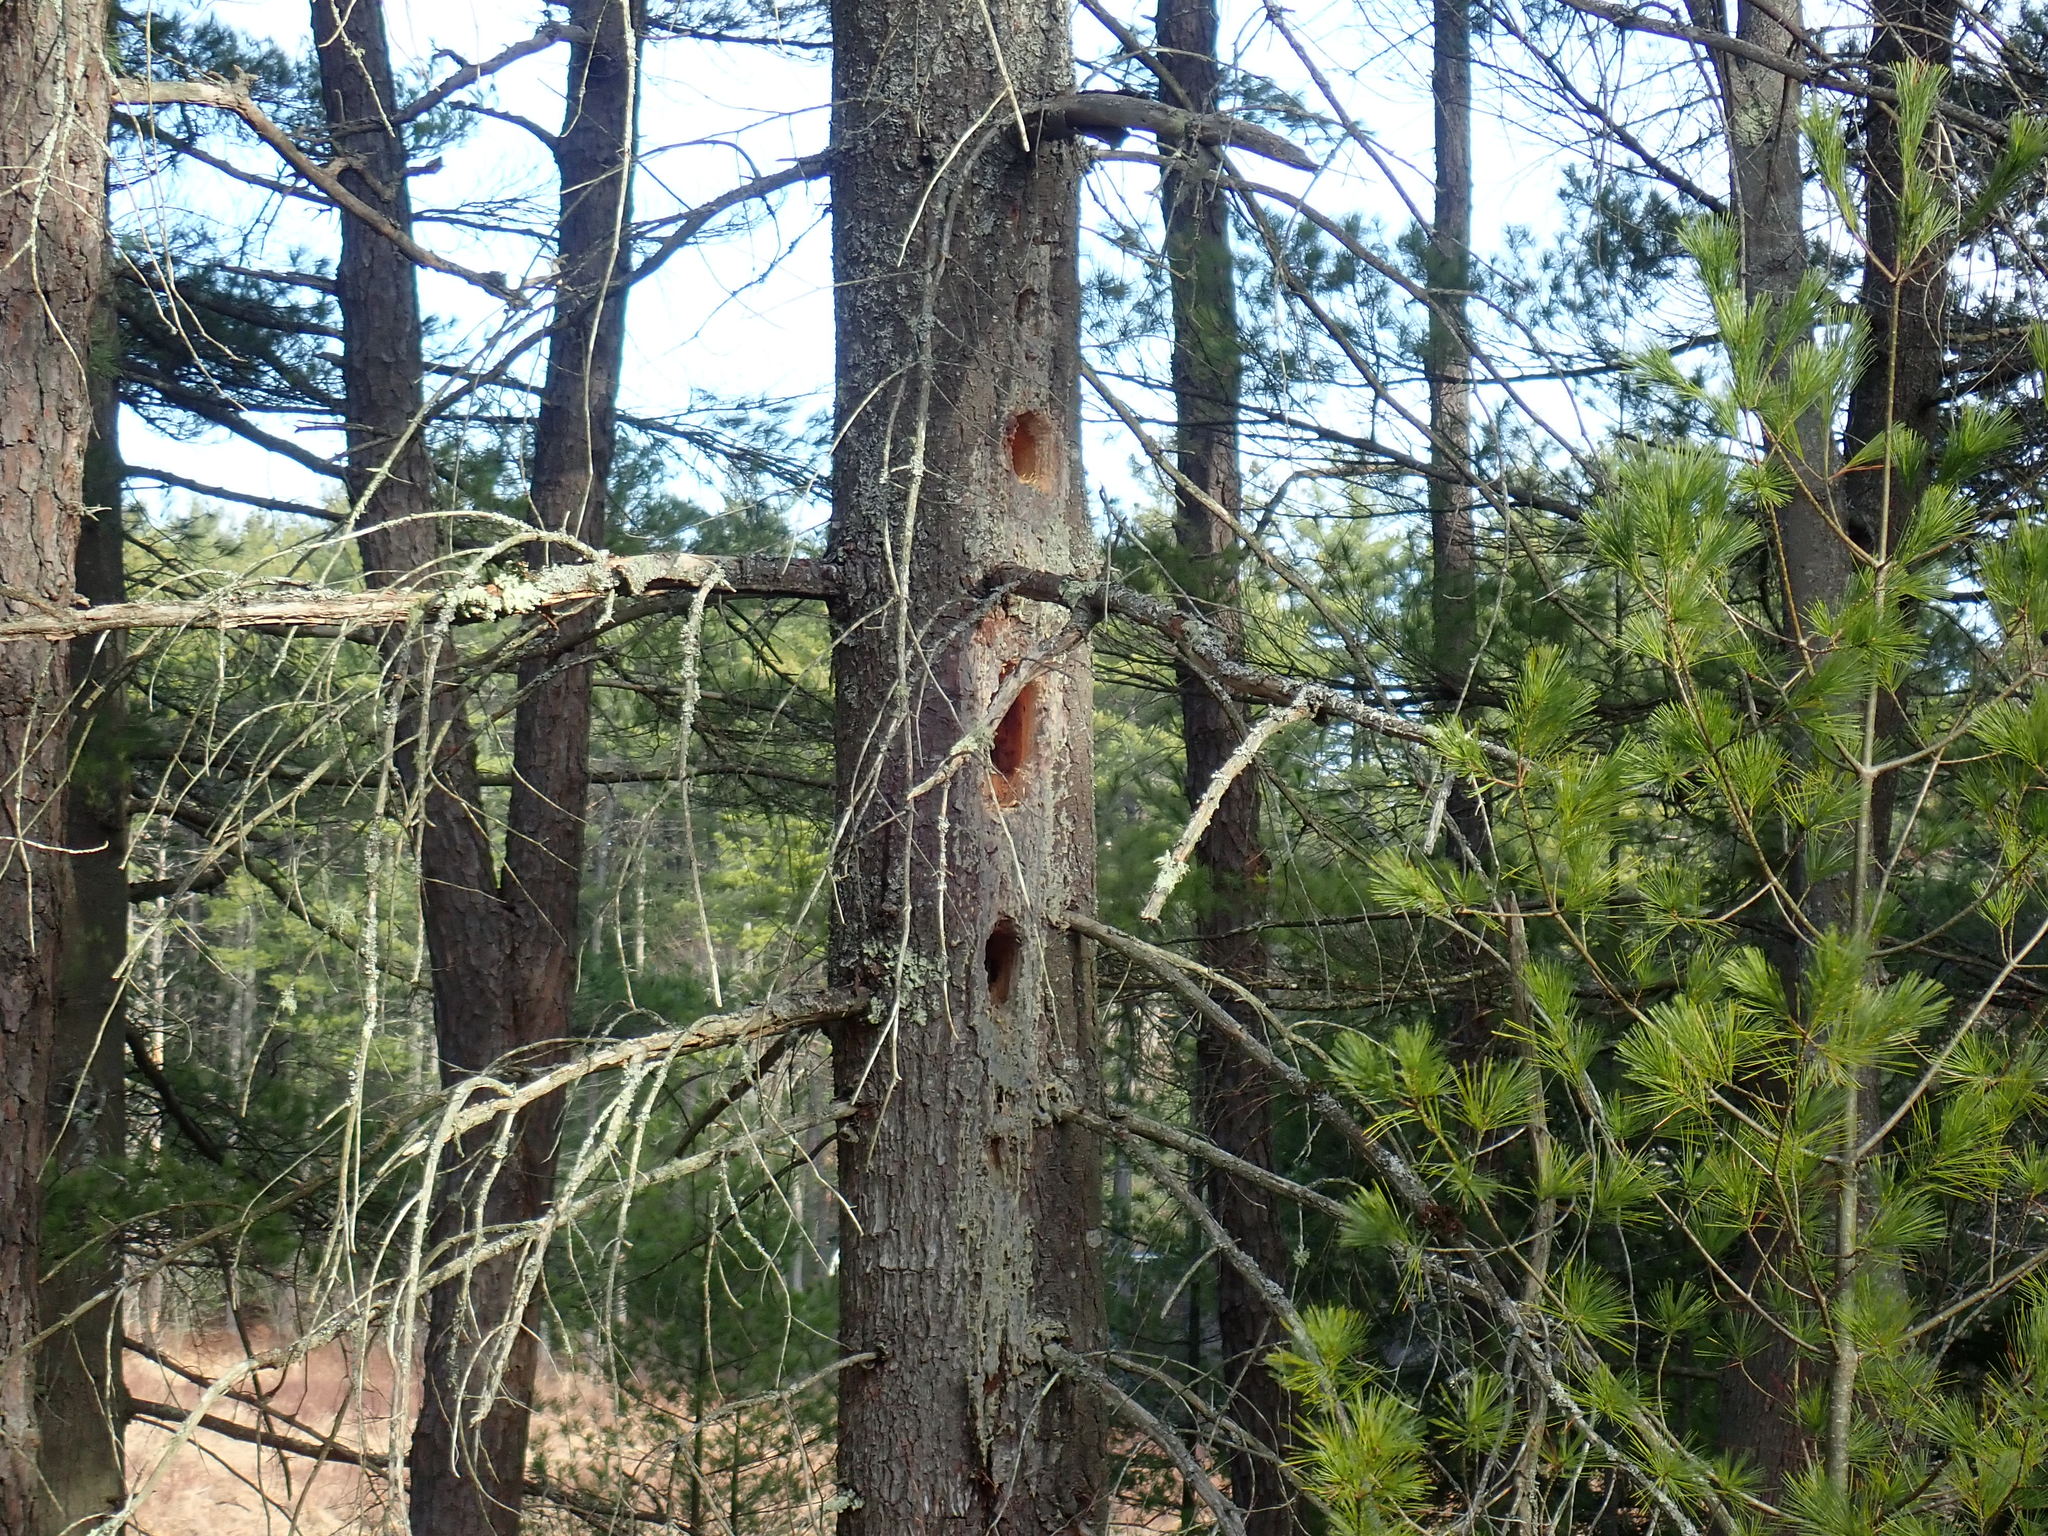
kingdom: Animalia
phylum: Chordata
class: Aves
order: Piciformes
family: Picidae
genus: Dryocopus
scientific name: Dryocopus pileatus
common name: Pileated woodpecker
